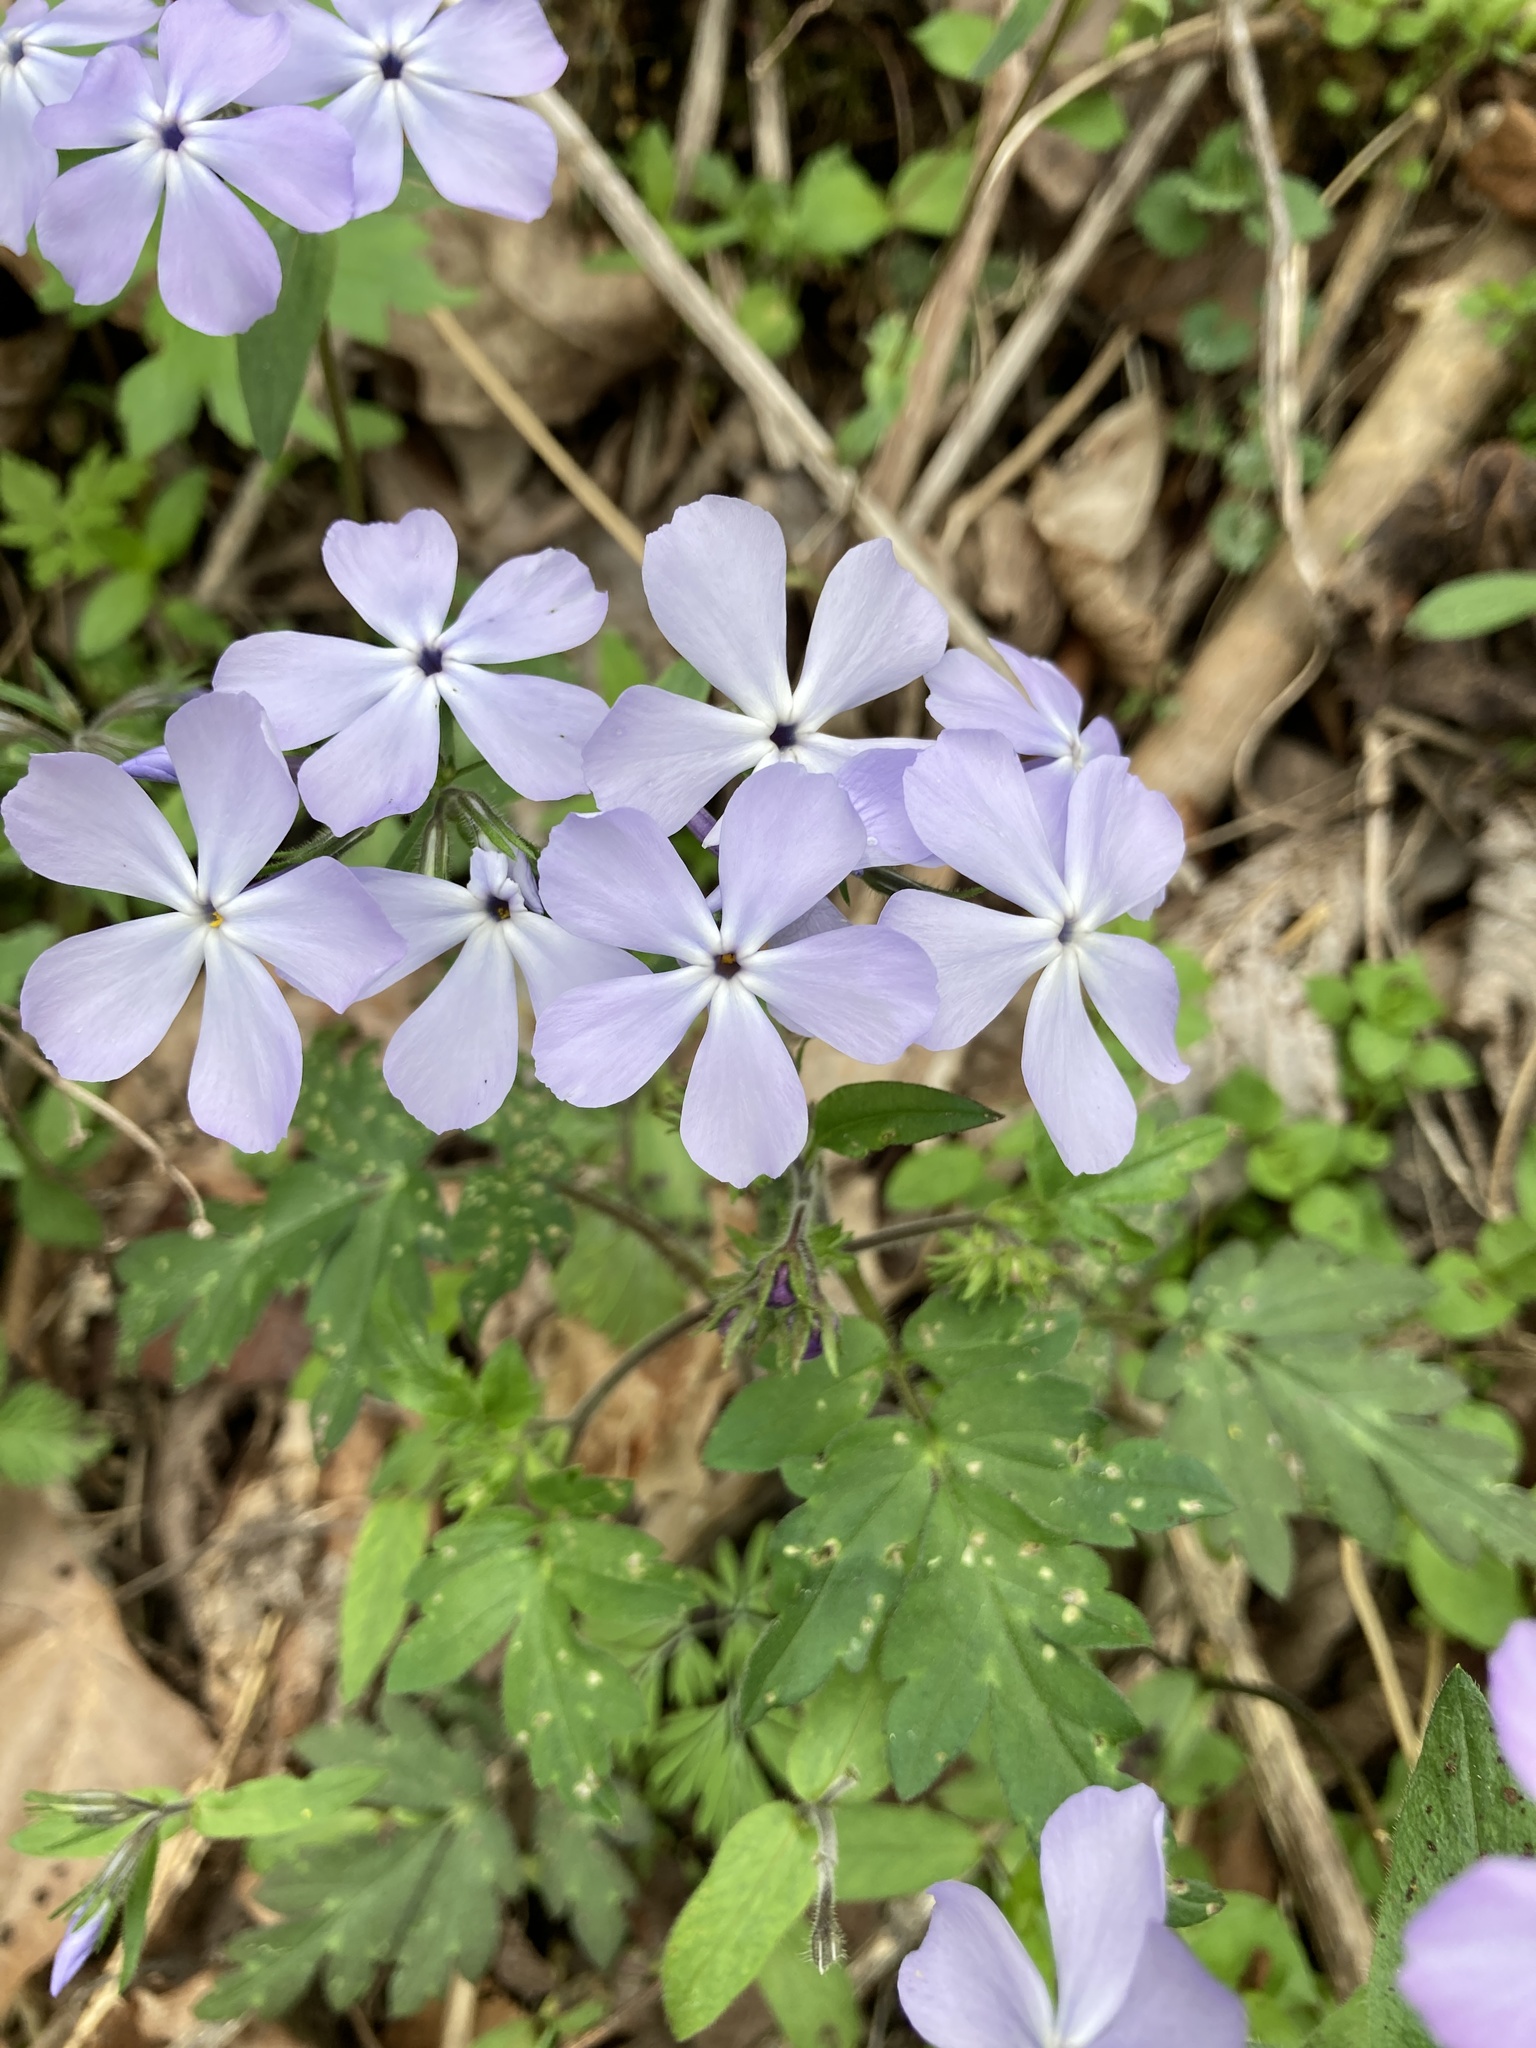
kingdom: Plantae
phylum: Tracheophyta
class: Magnoliopsida
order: Ericales
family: Polemoniaceae
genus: Phlox
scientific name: Phlox divaricata
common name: Blue phlox
